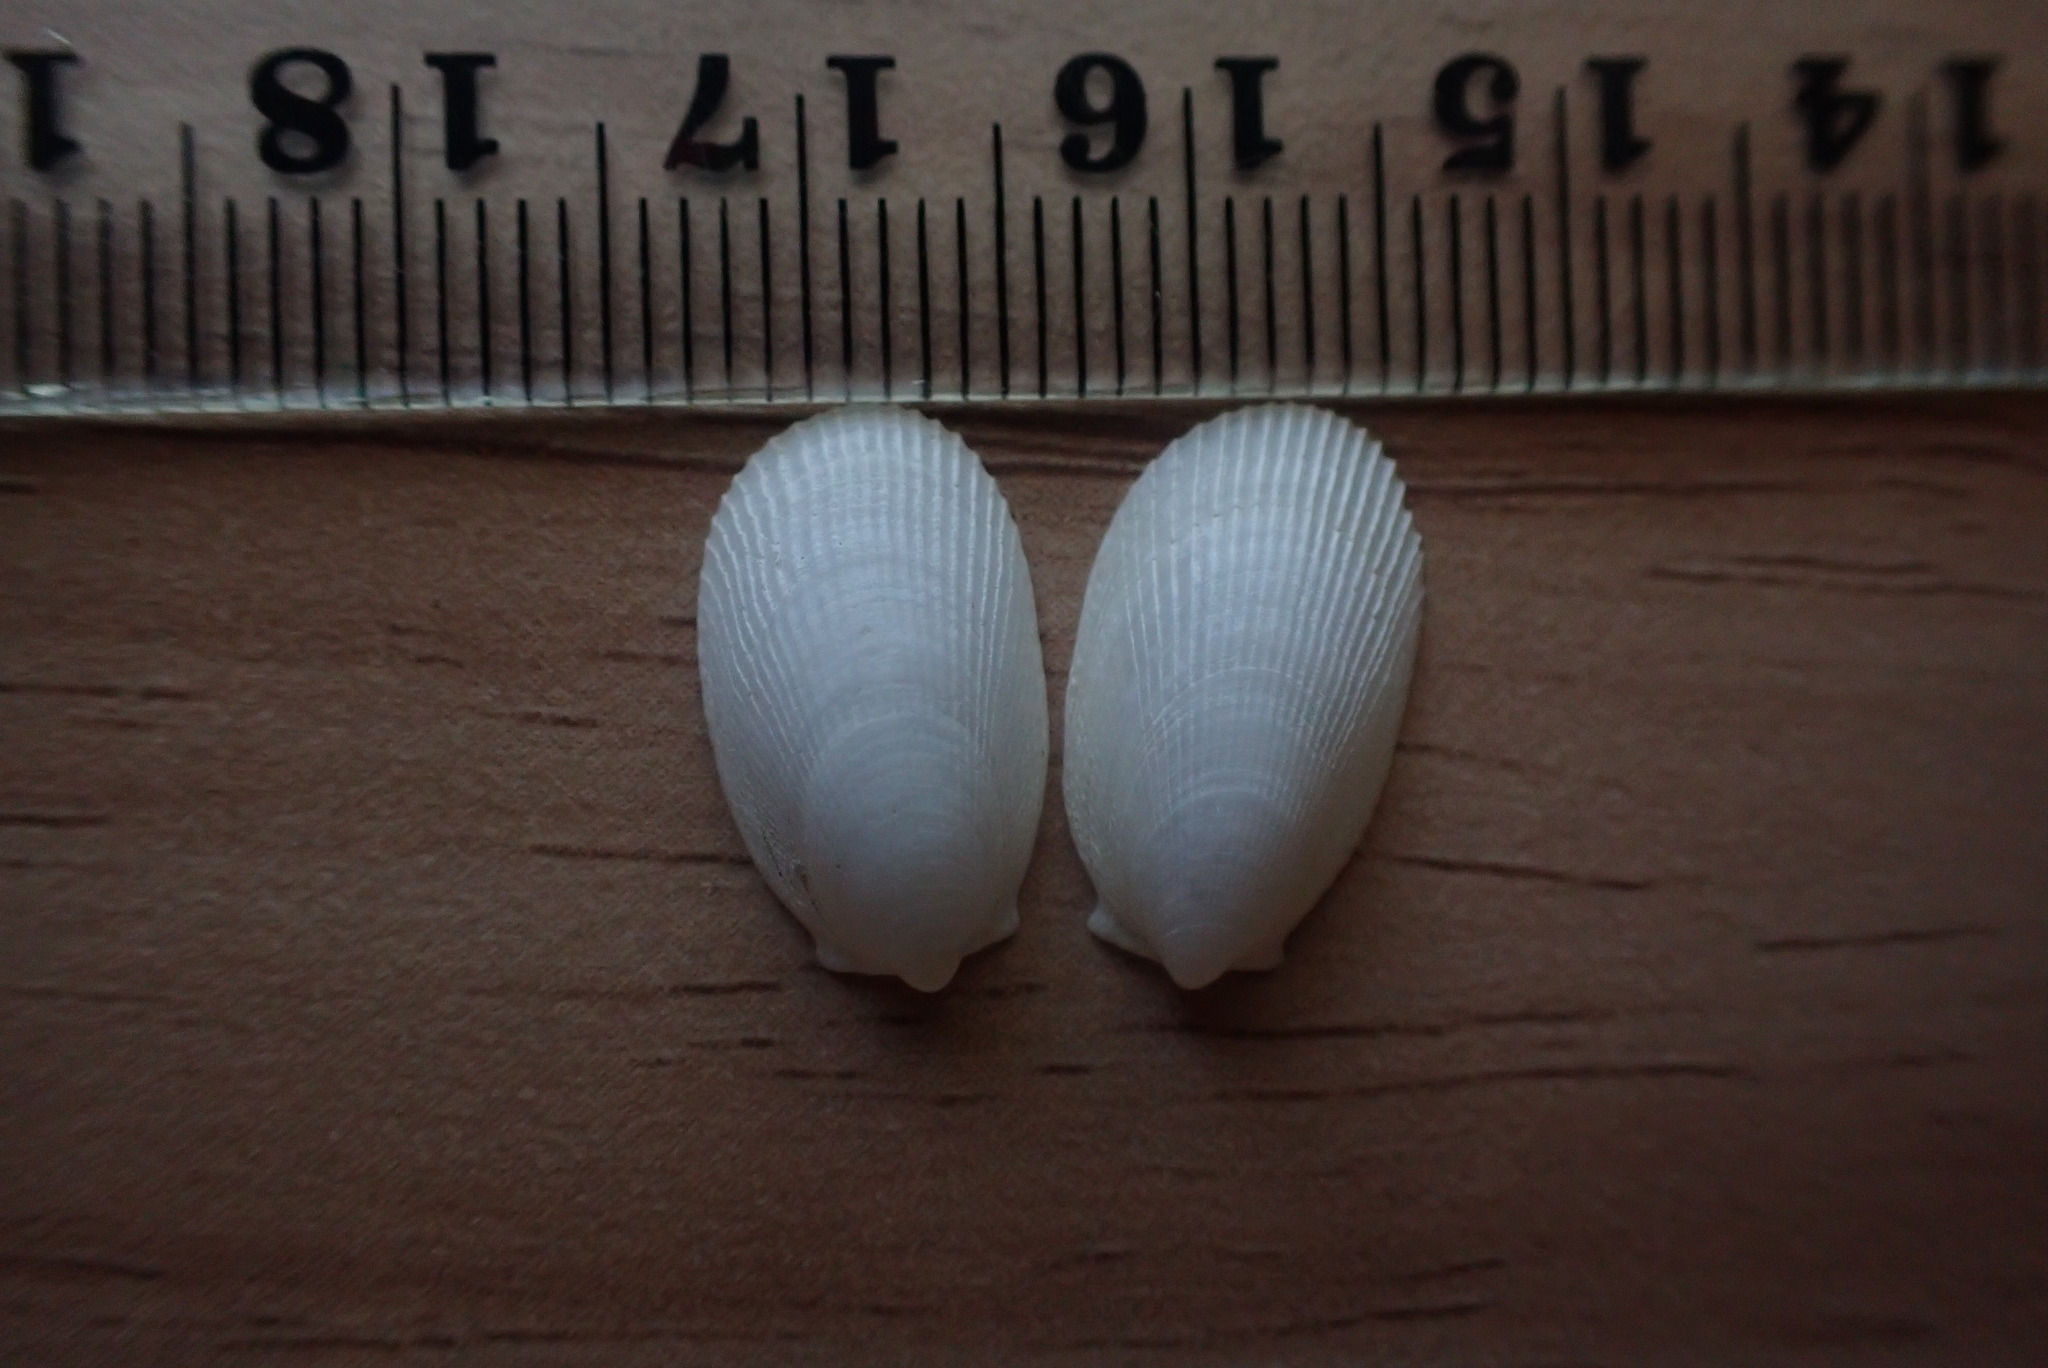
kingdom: Animalia
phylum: Mollusca
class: Bivalvia
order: Limida
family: Limidae
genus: Limatula
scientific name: Limatula maoria
